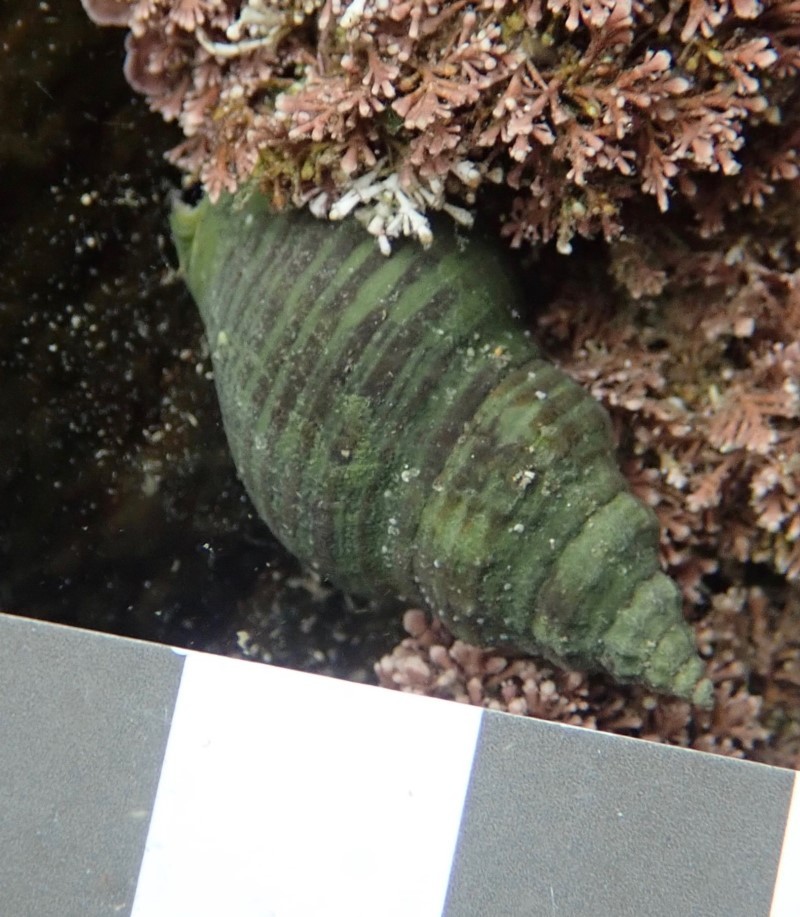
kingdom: Animalia
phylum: Mollusca
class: Gastropoda
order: Neogastropoda
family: Cominellidae
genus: Cominella
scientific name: Cominella lineolata
